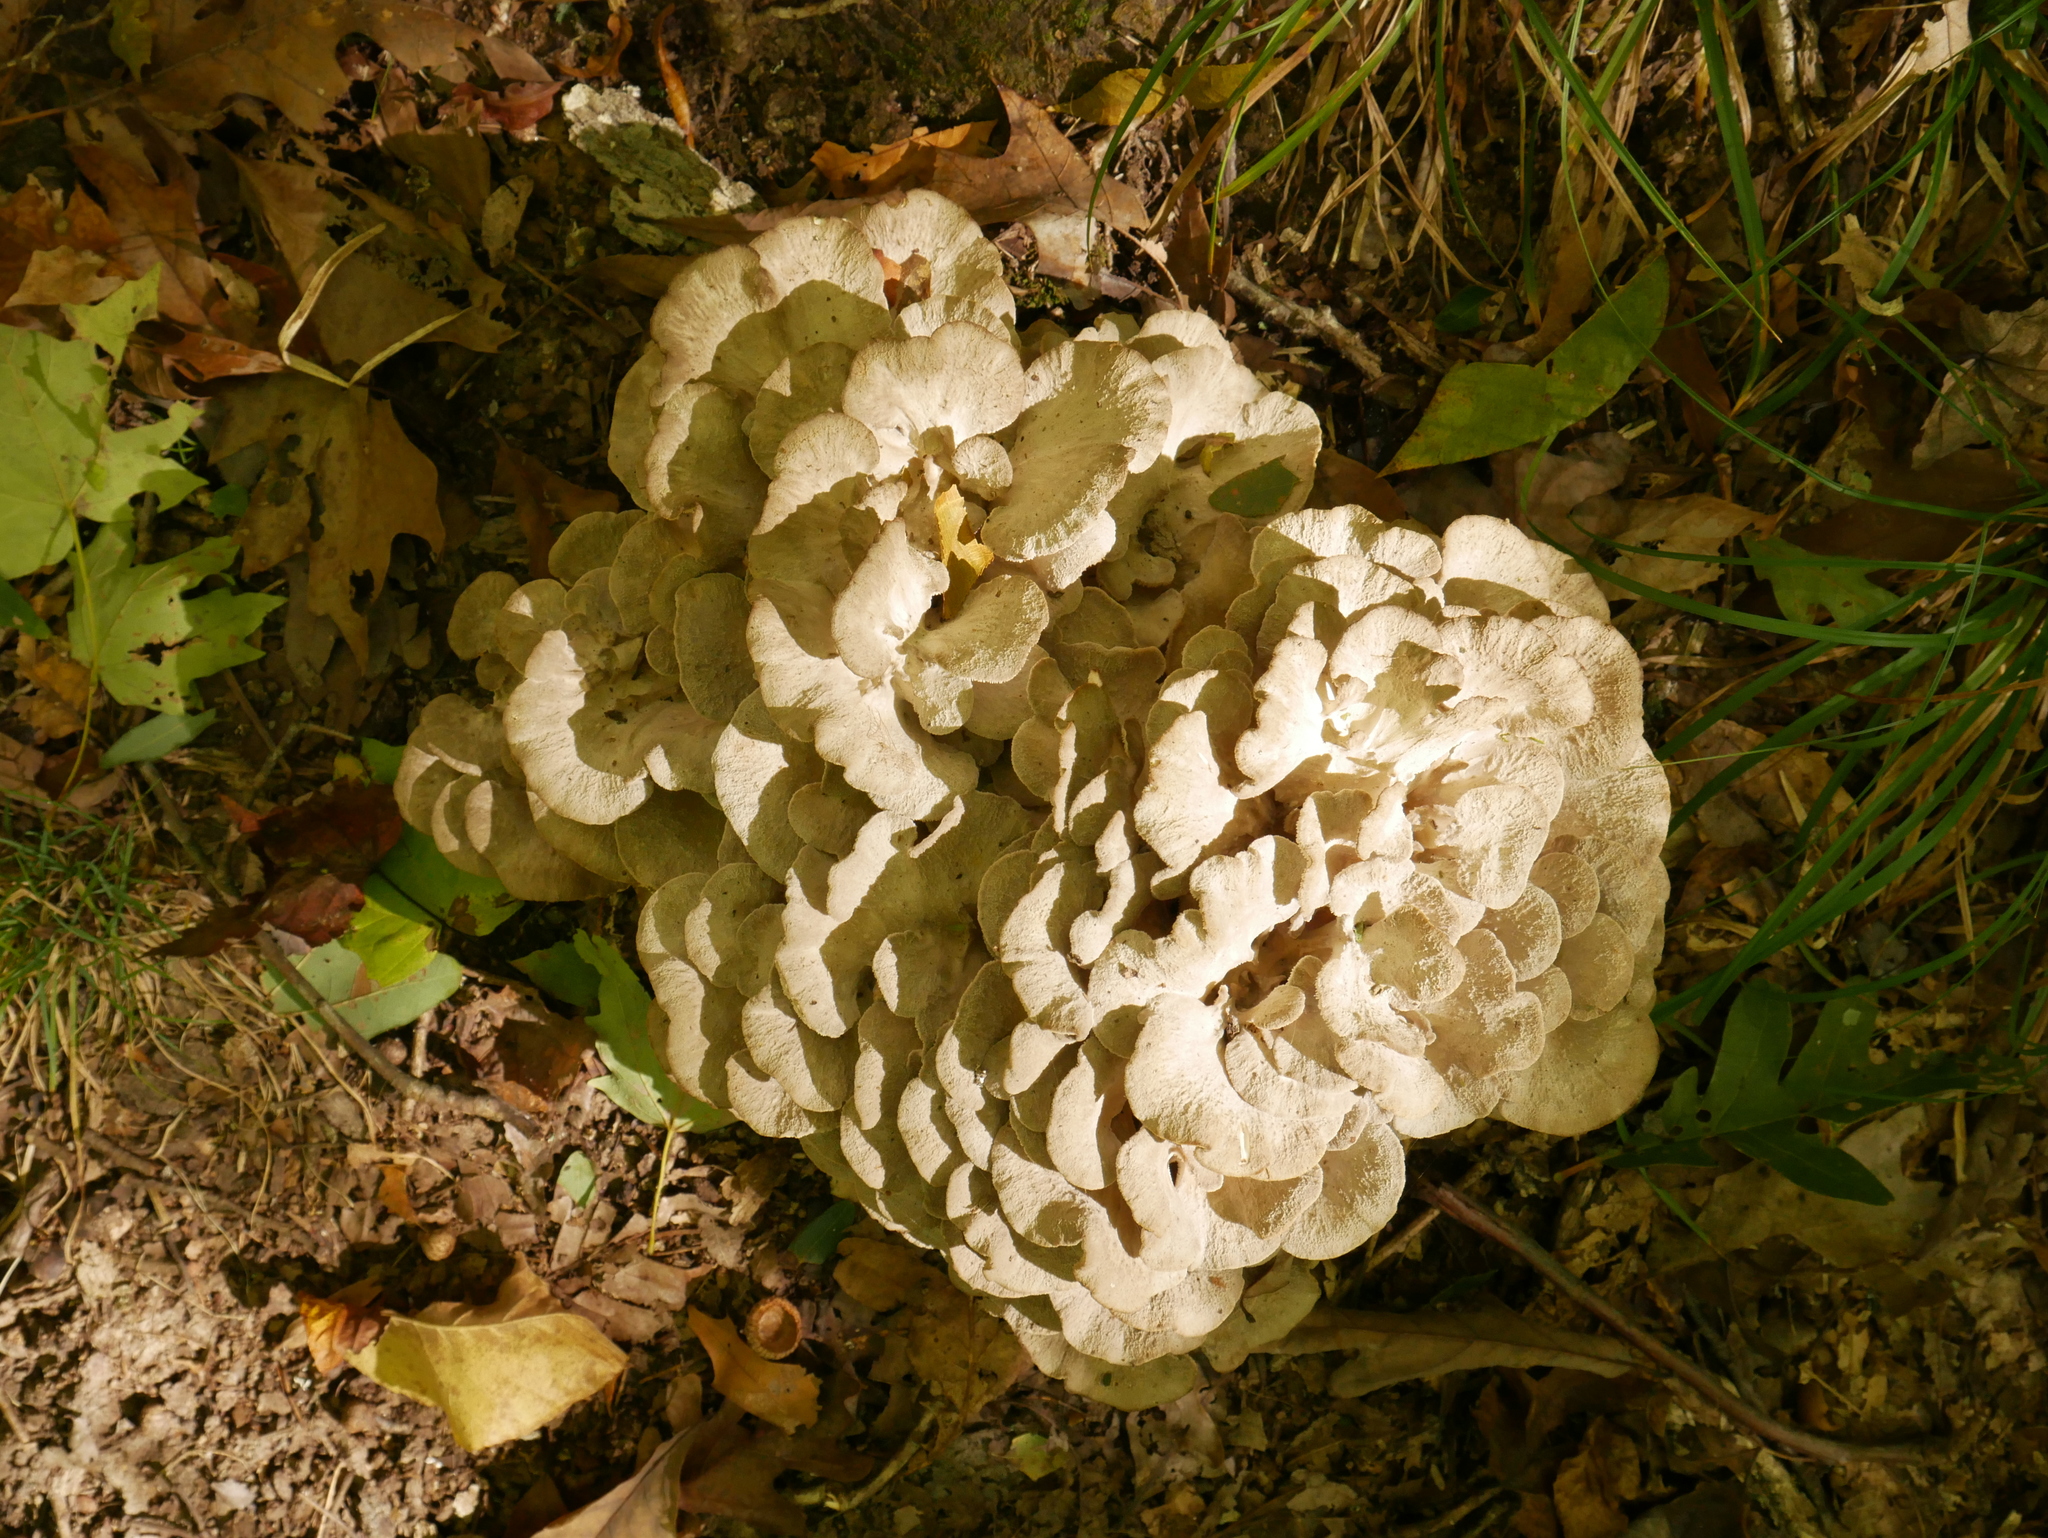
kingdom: Fungi
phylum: Basidiomycota
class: Agaricomycetes
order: Polyporales
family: Grifolaceae
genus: Grifola
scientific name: Grifola frondosa
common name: Hen of the woods
